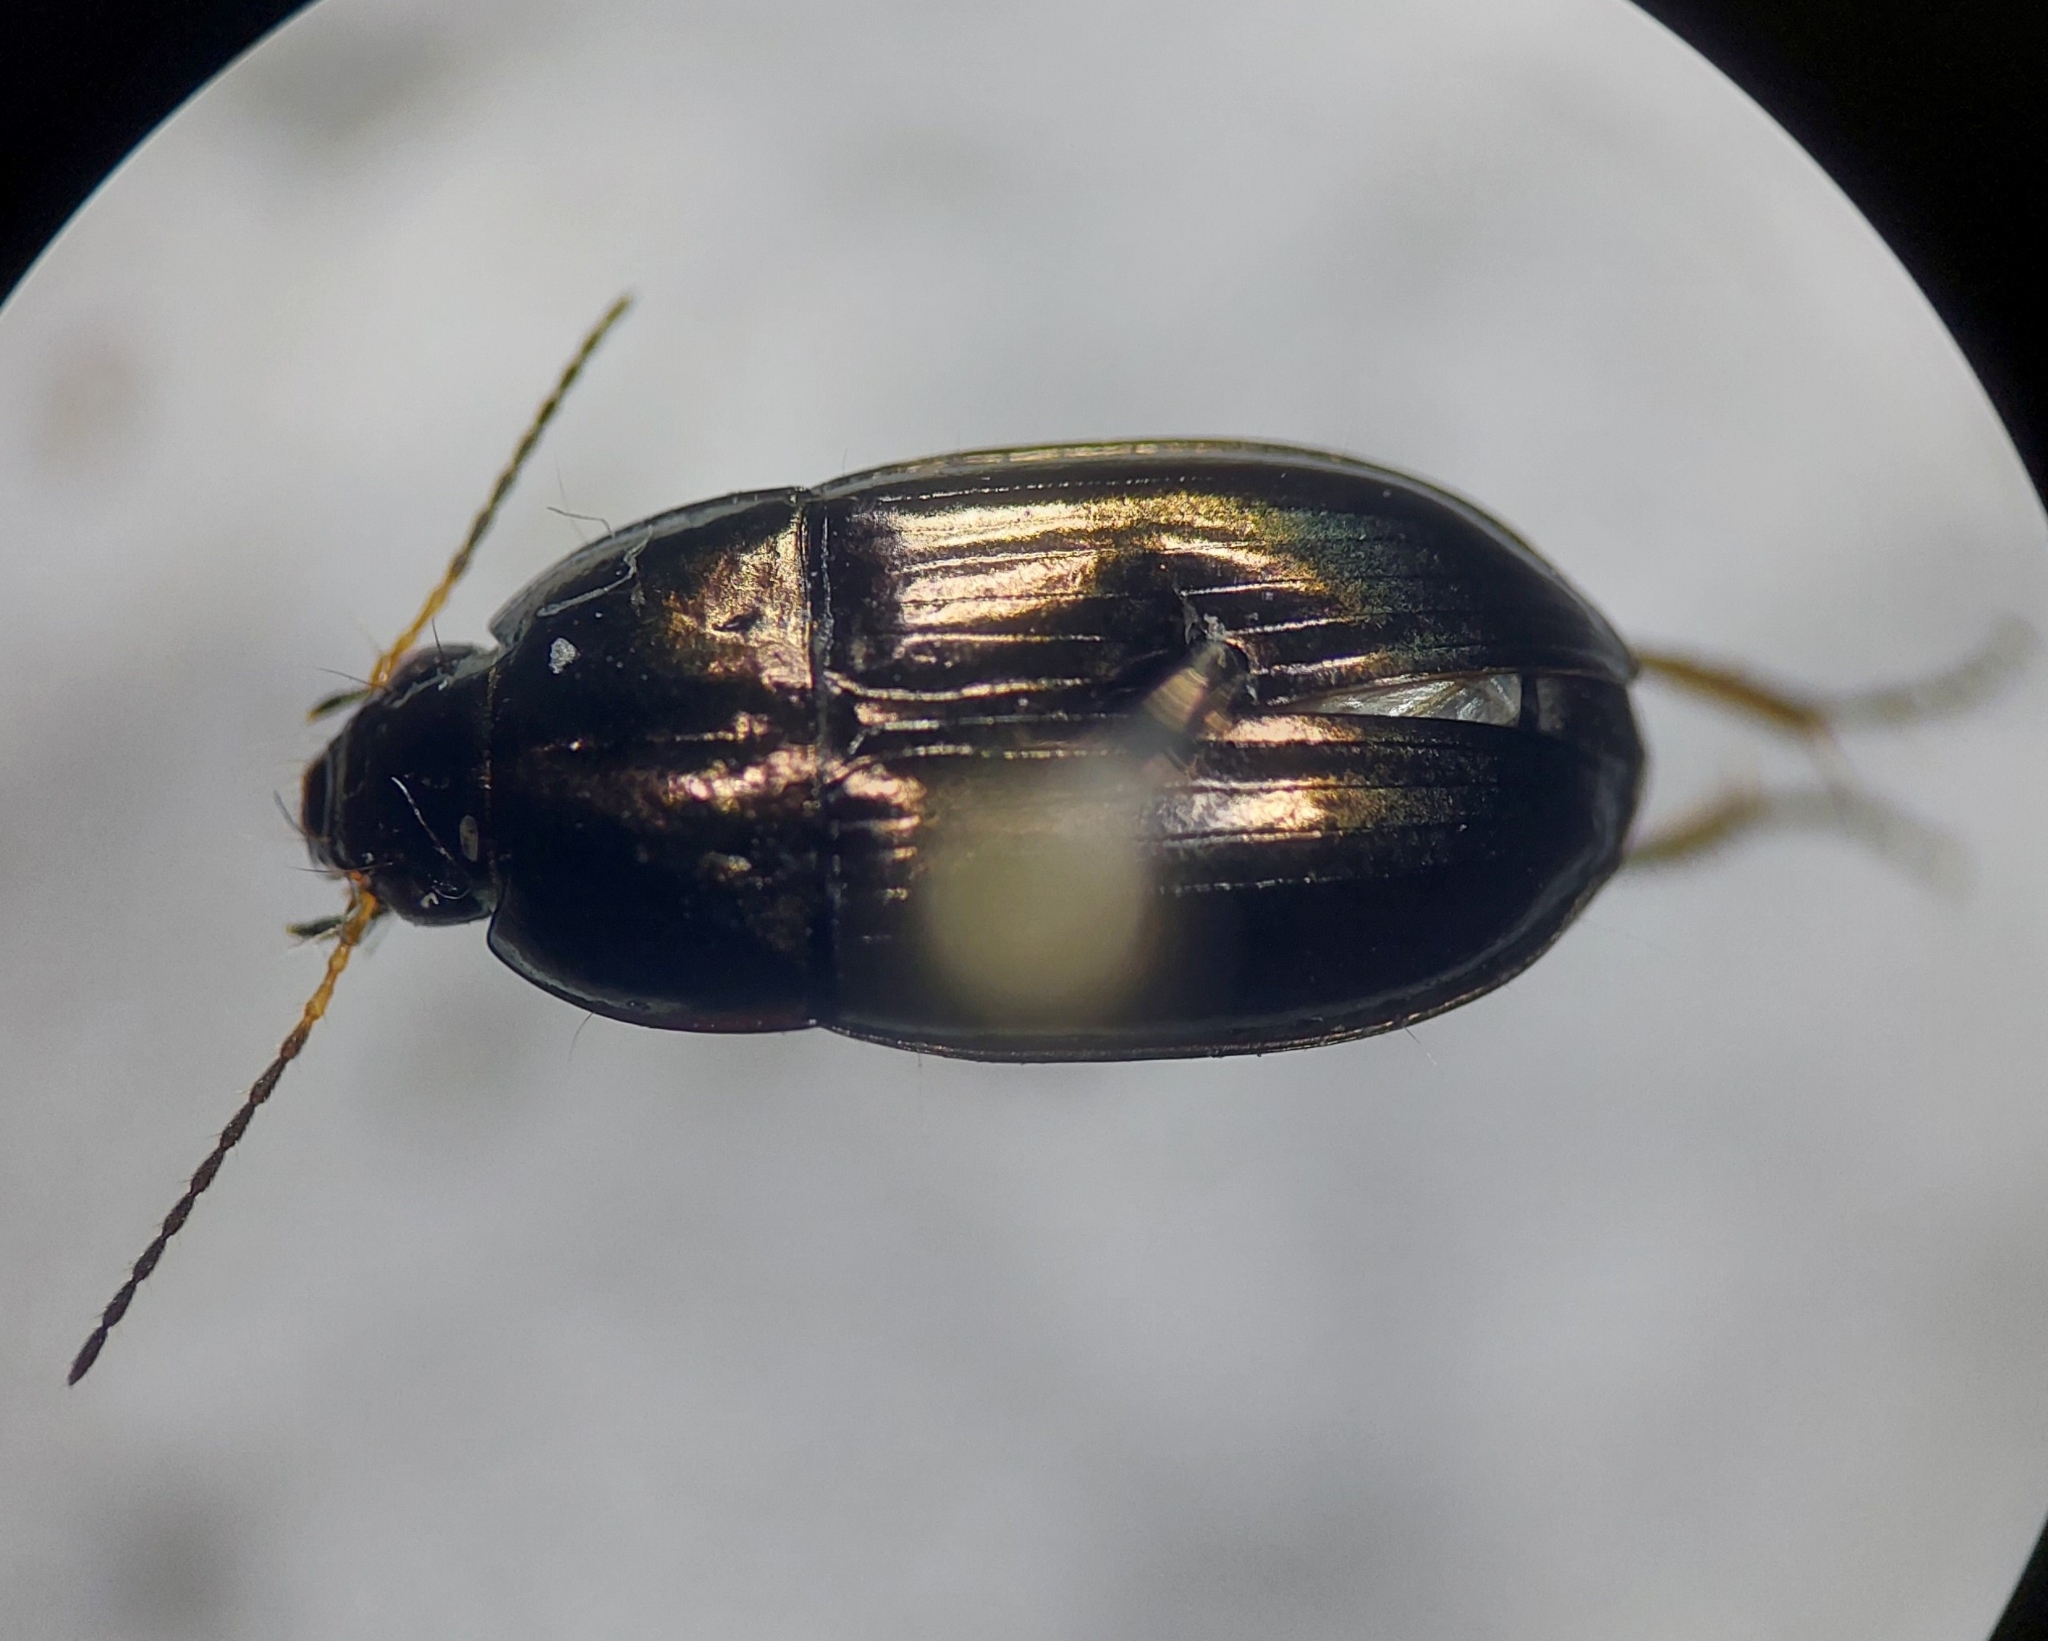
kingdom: Animalia
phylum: Arthropoda
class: Insecta
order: Coleoptera
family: Carabidae
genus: Amara
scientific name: Amara aenea
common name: Common sun beetle
